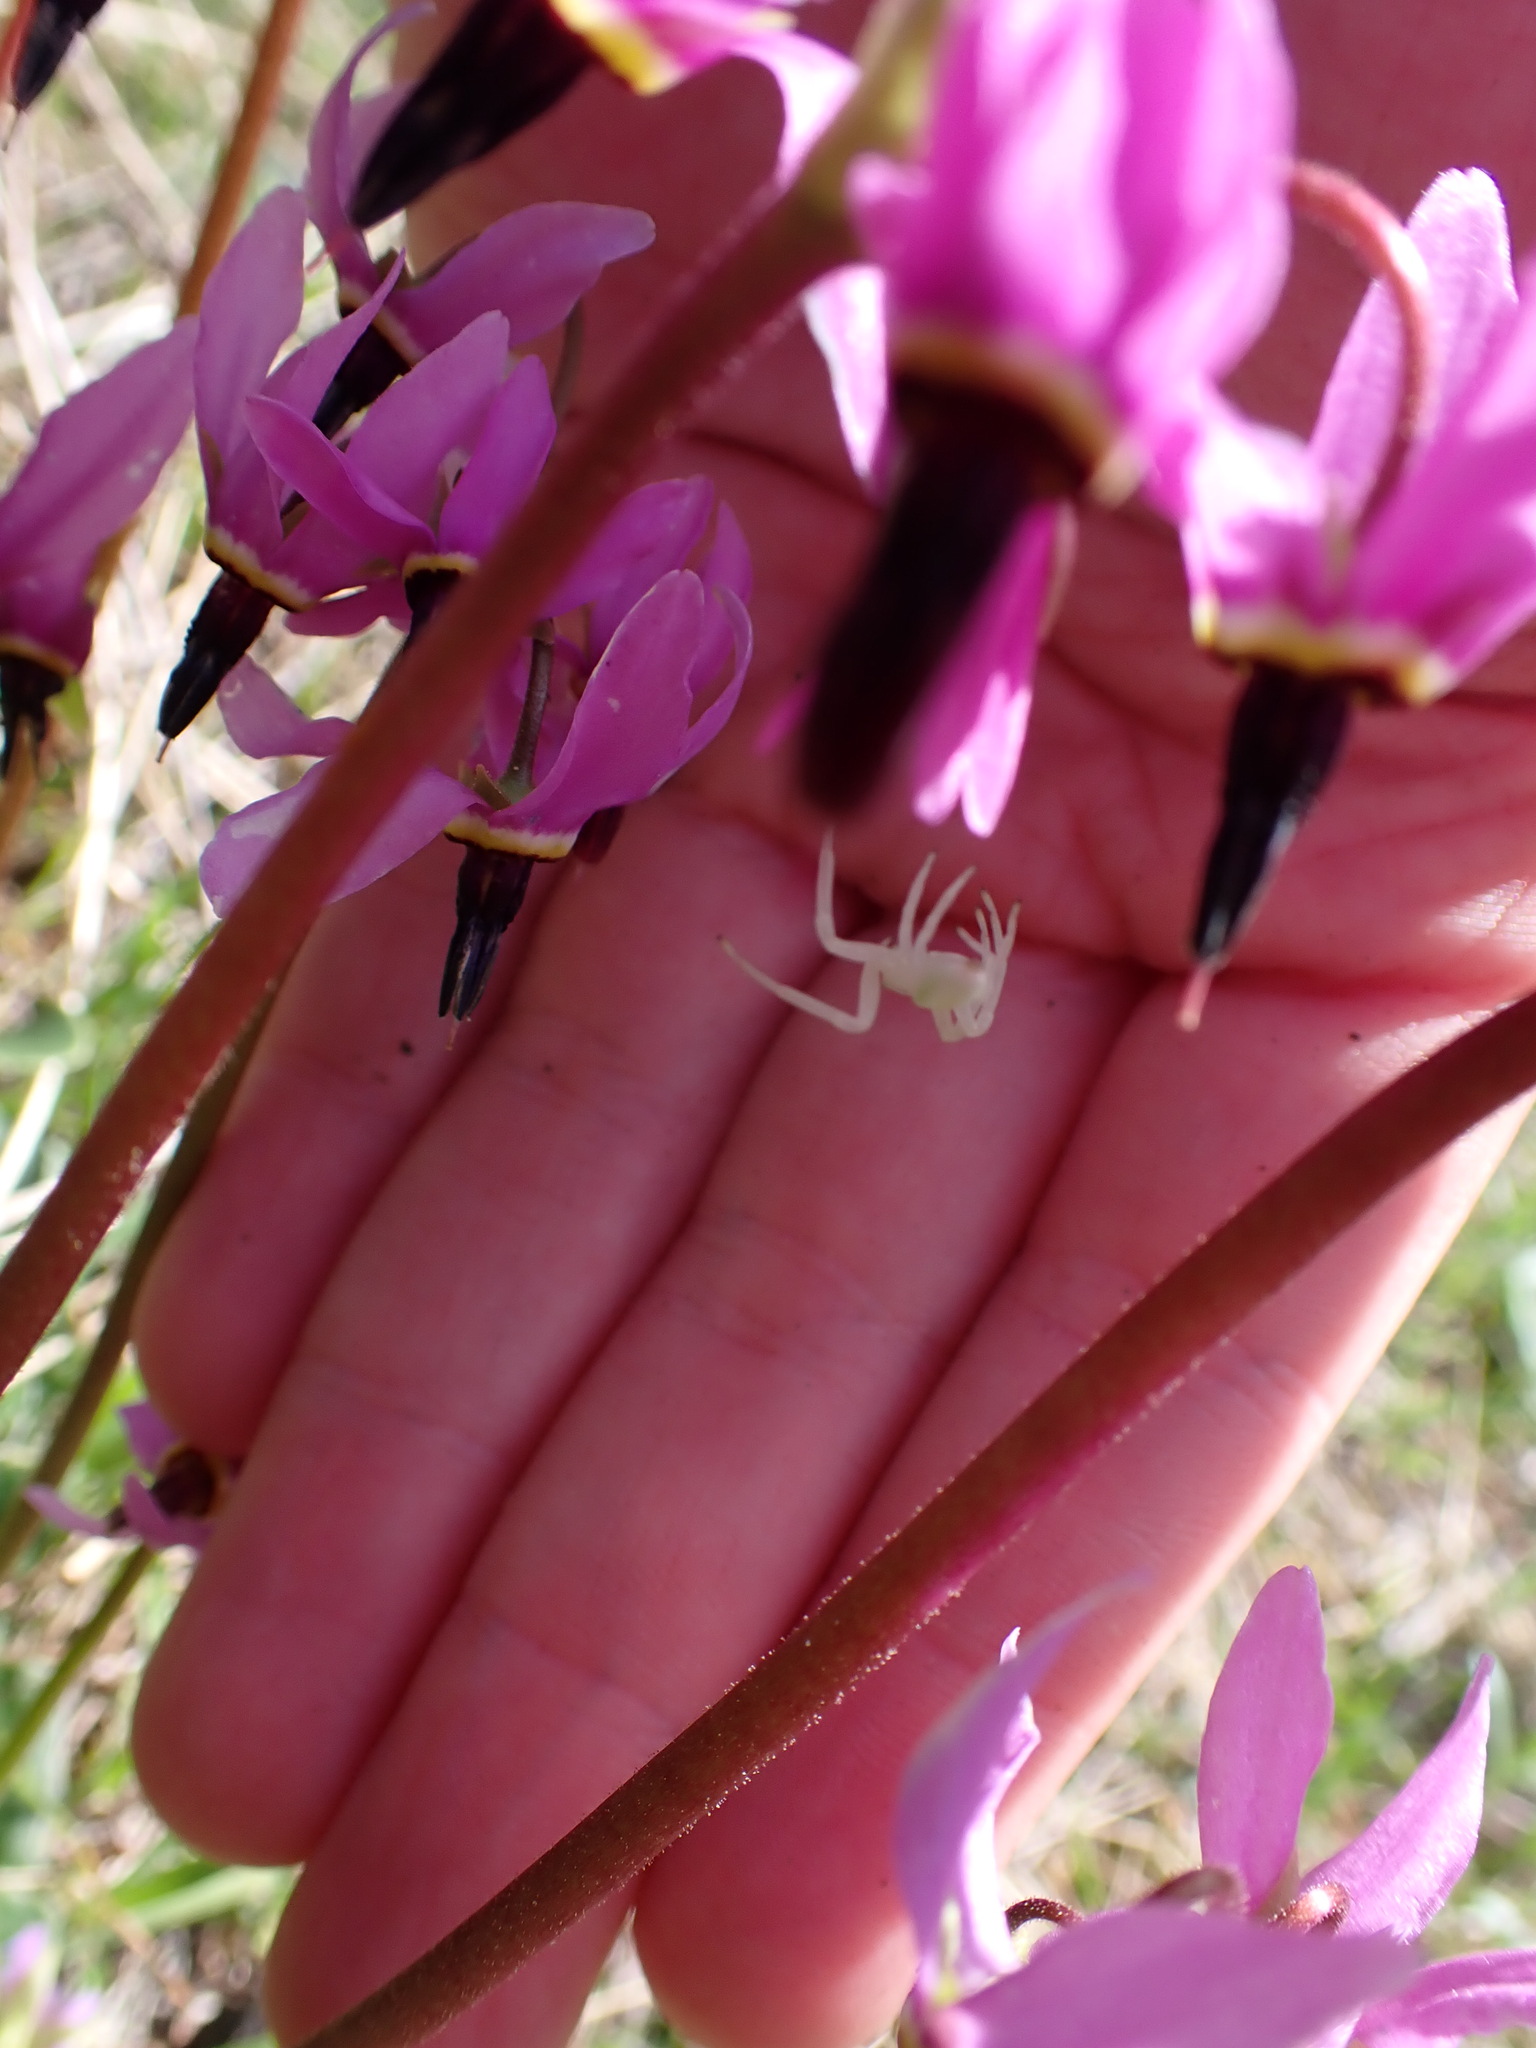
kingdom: Animalia
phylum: Arthropoda
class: Arachnida
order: Araneae
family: Thomisidae
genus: Misumena
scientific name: Misumena vatia
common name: Goldenrod crab spider
